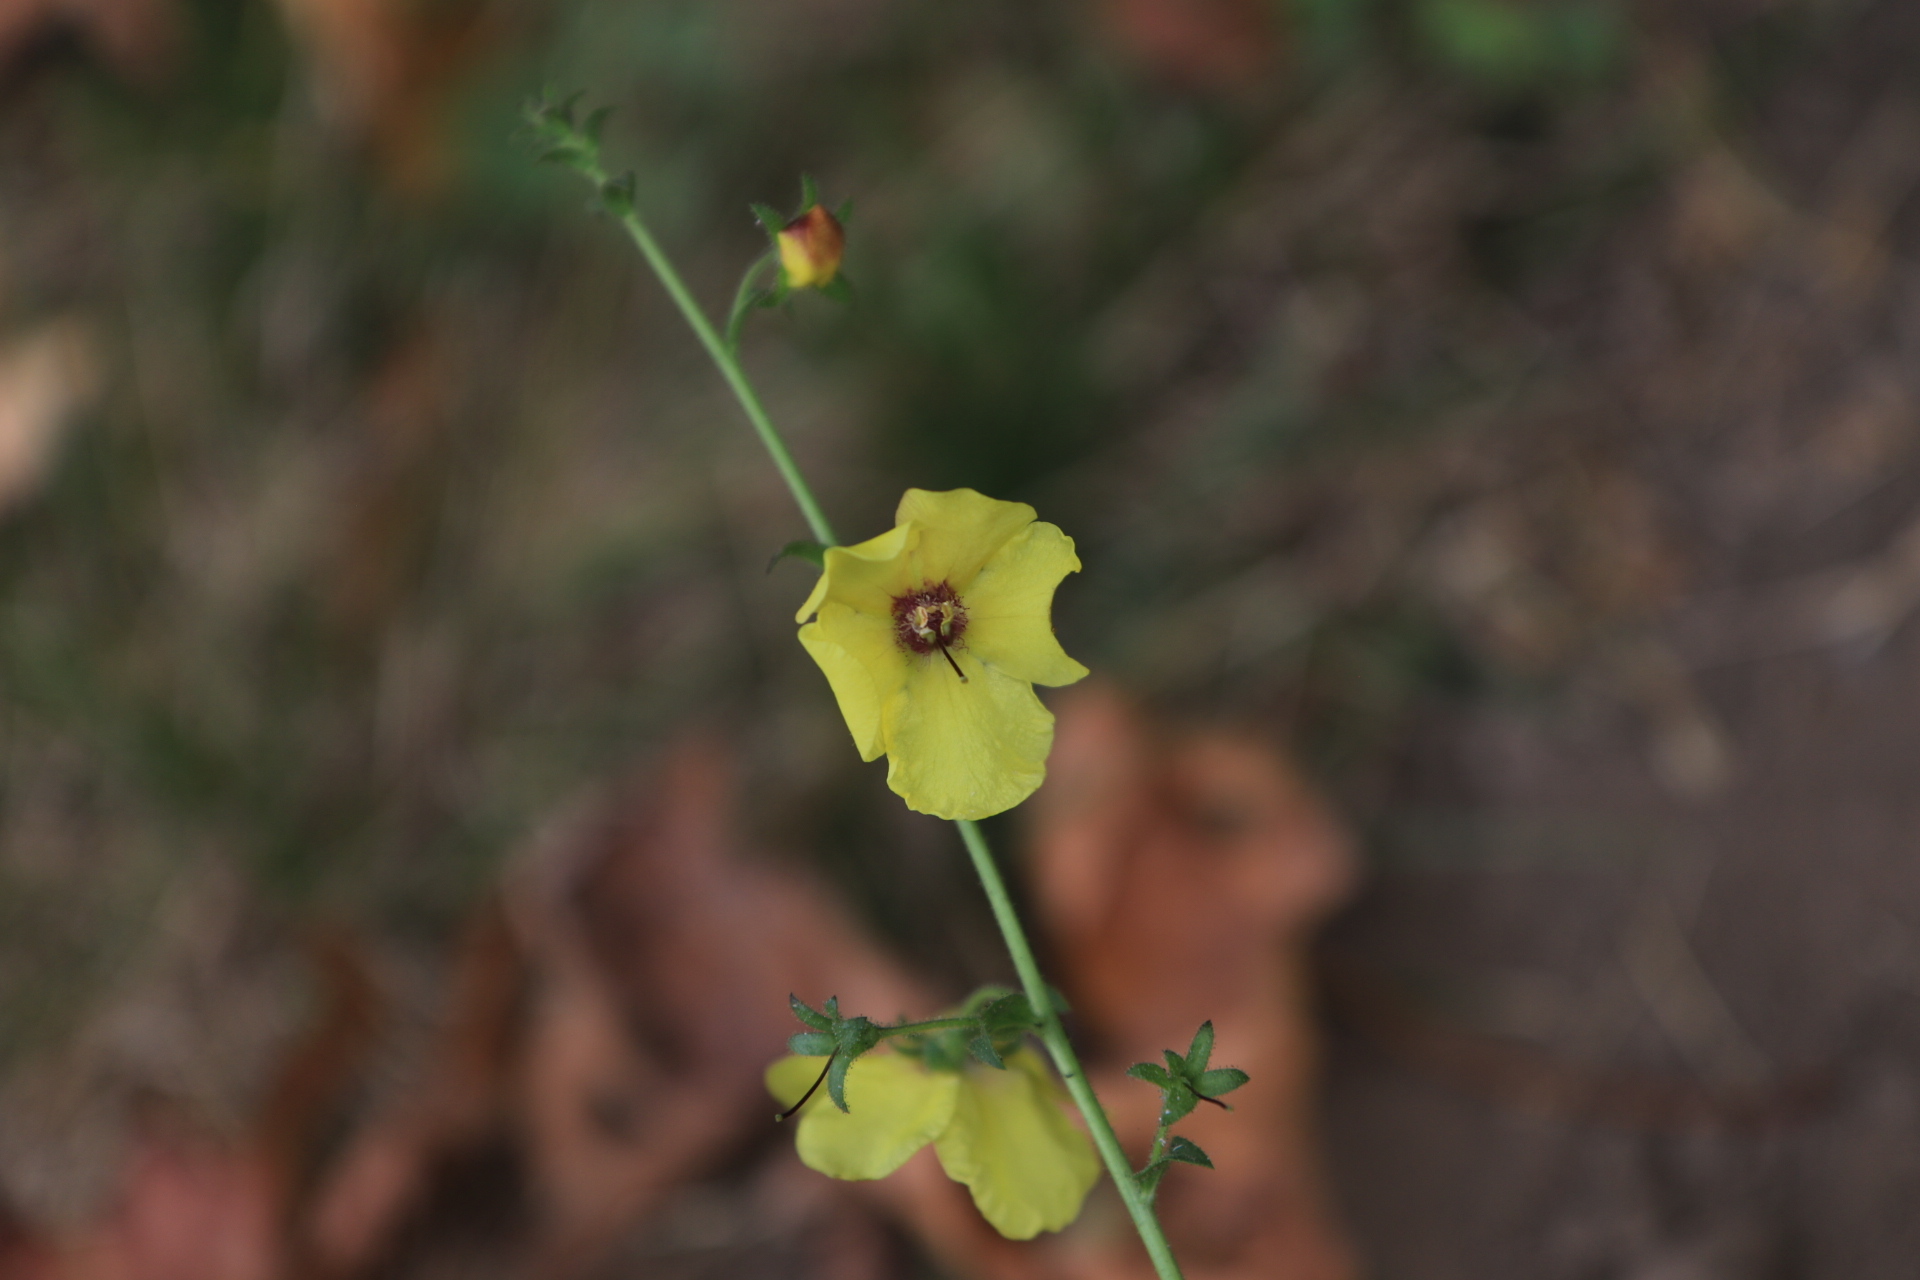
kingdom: Plantae
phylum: Tracheophyta
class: Magnoliopsida
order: Lamiales
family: Scrophulariaceae
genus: Verbascum
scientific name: Verbascum blattaria
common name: Moth mullein
